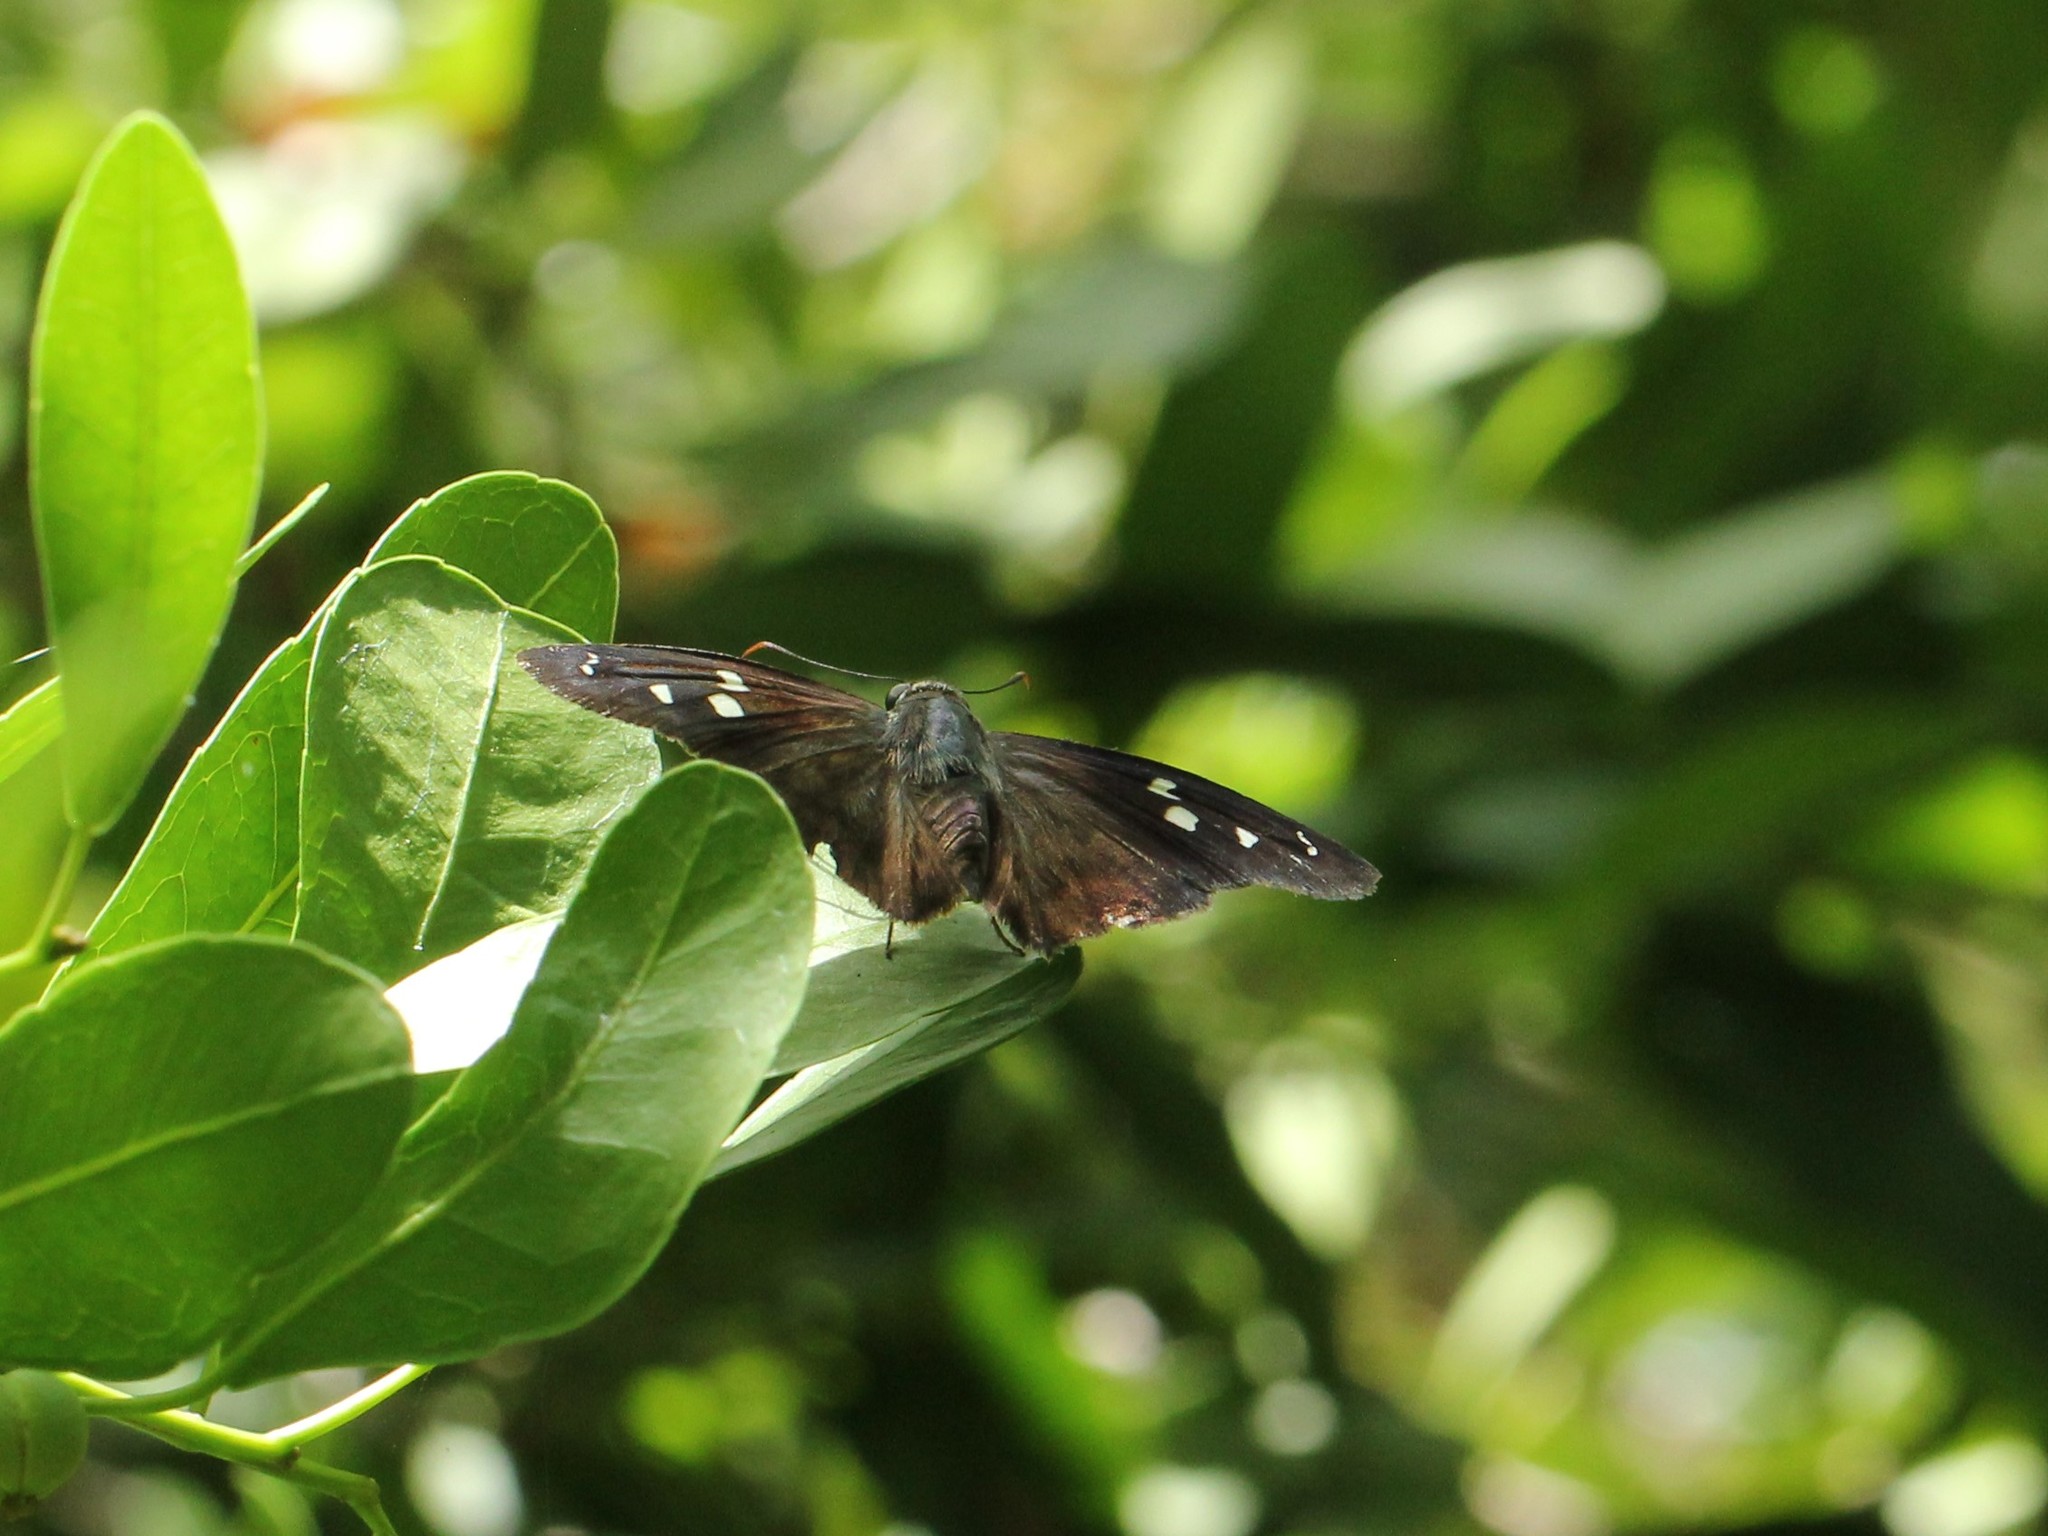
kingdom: Animalia
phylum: Arthropoda
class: Insecta
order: Lepidoptera
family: Hesperiidae
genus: Polygonus
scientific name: Polygonus leo
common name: Hammoch skipper
